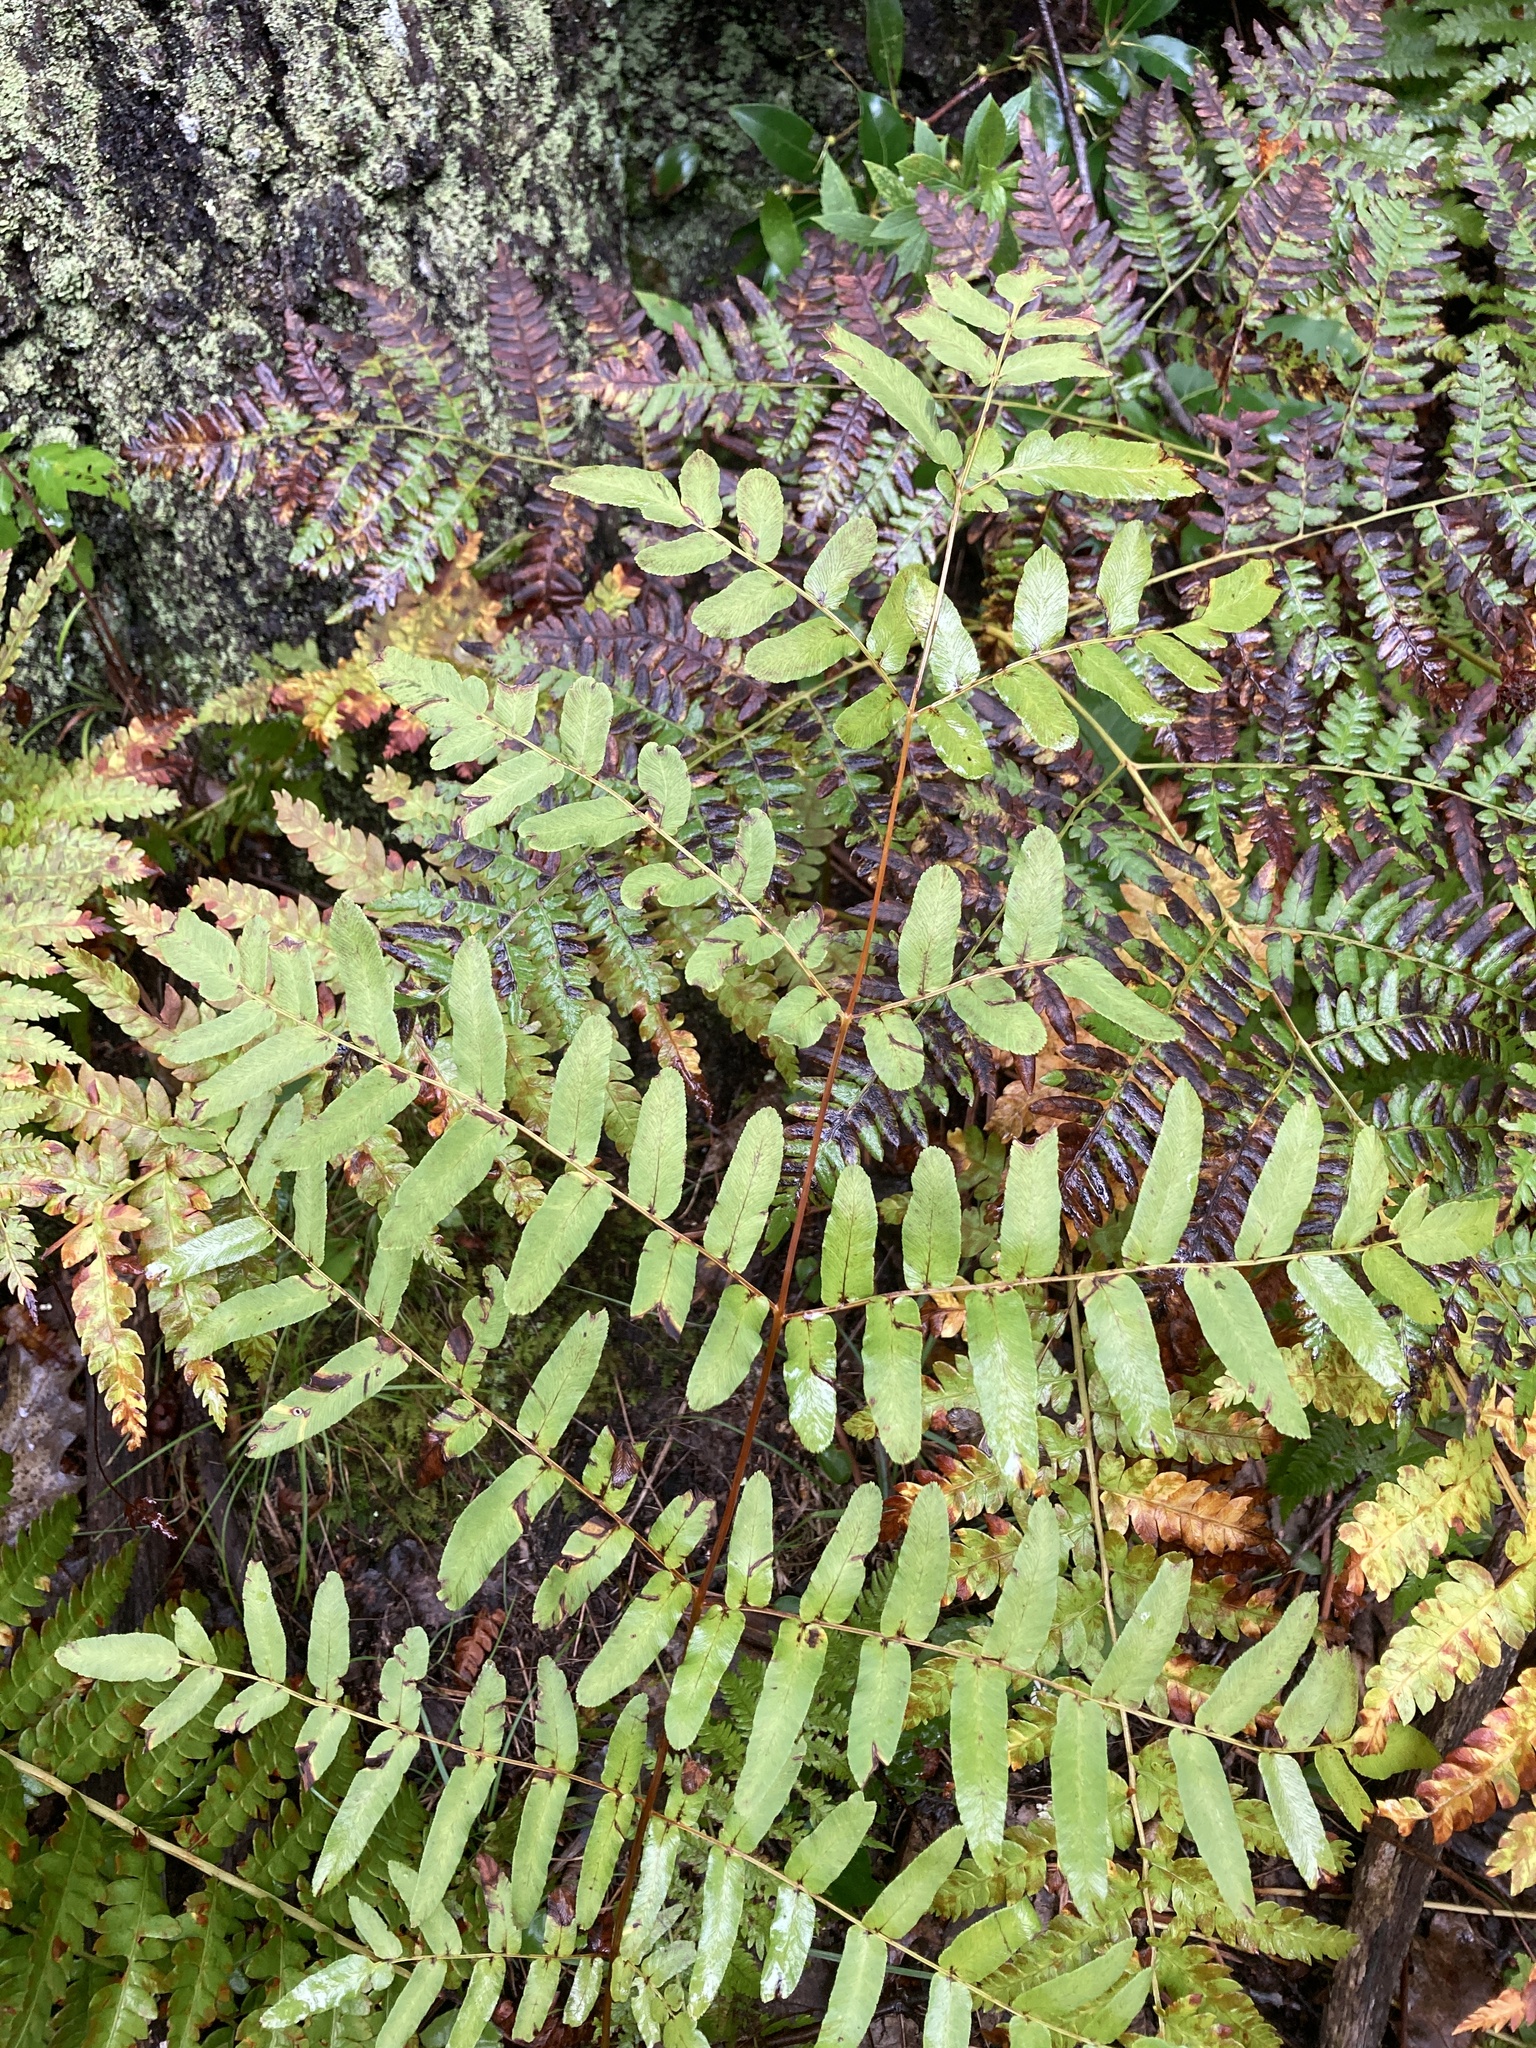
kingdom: Plantae
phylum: Tracheophyta
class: Polypodiopsida
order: Osmundales
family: Osmundaceae
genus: Osmunda
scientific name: Osmunda spectabilis
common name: American royal fern
